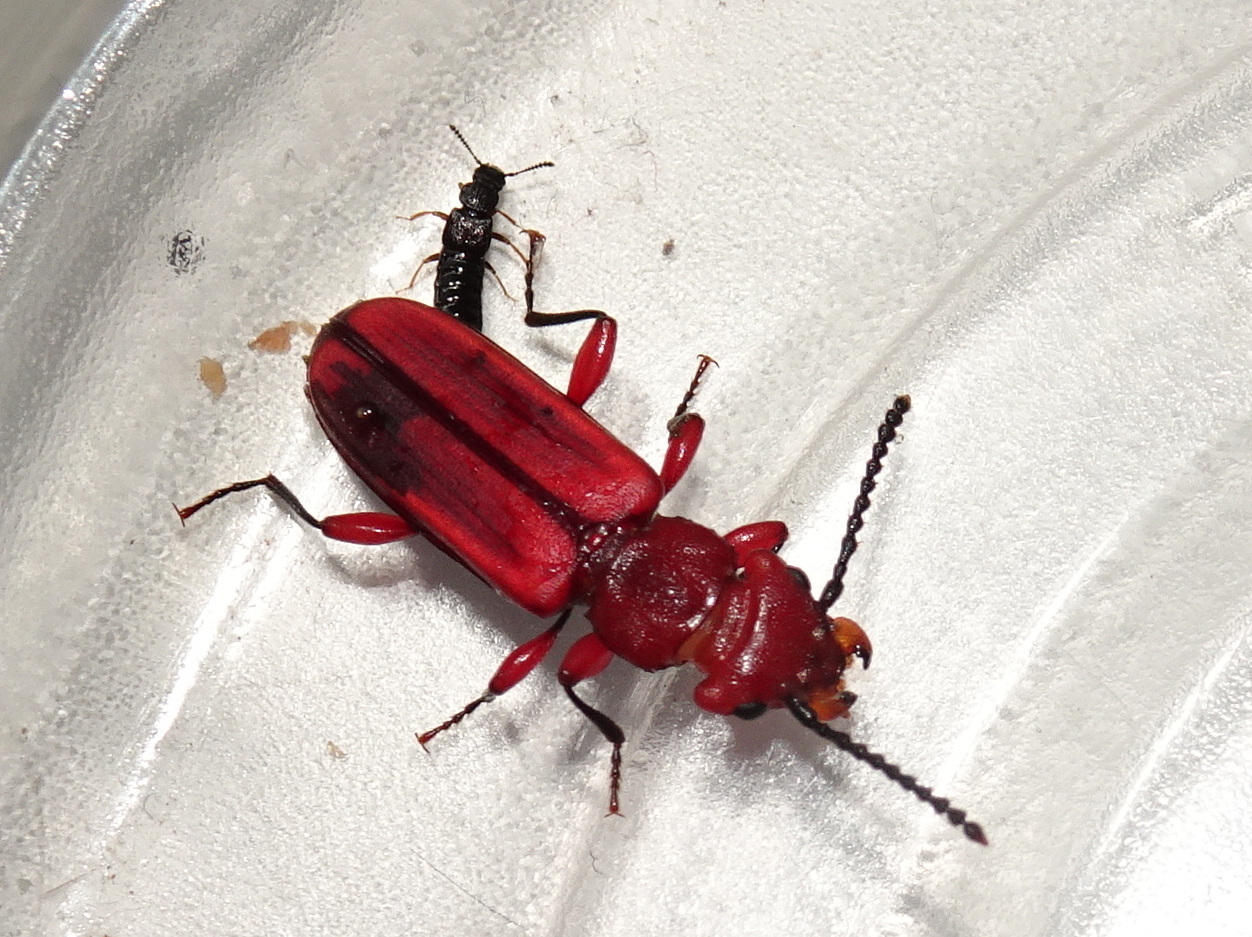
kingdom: Animalia
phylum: Arthropoda
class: Insecta
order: Coleoptera
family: Cucujidae
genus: Cucujus
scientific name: Cucujus clavipes
